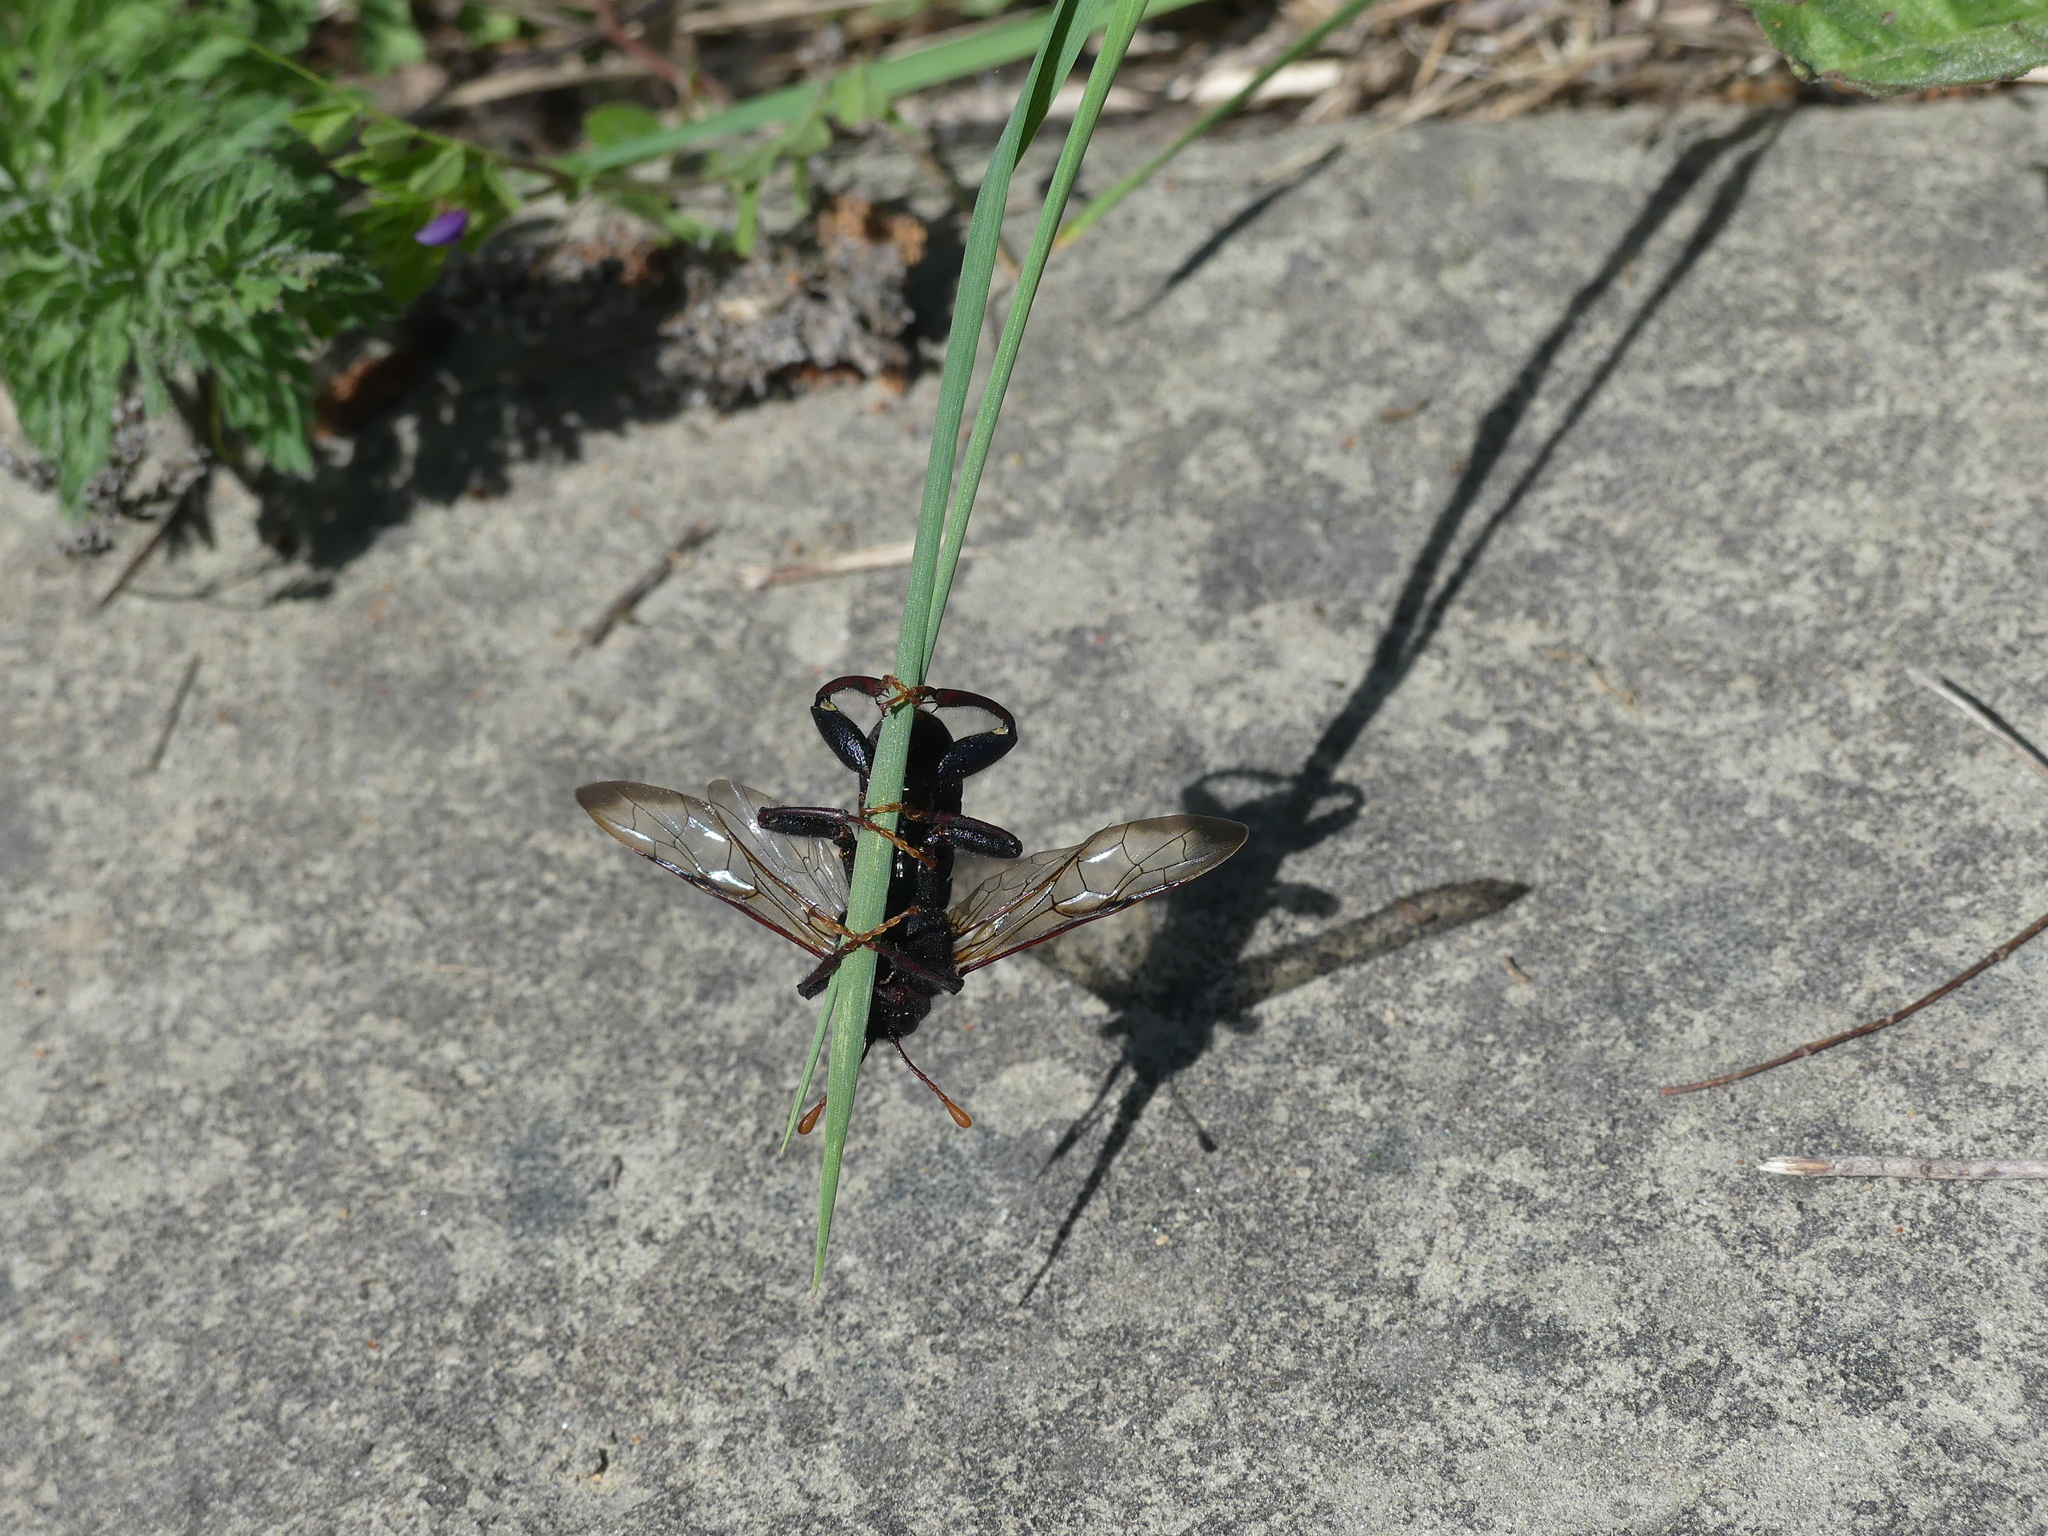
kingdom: Animalia
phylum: Arthropoda
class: Insecta
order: Hymenoptera
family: Cimbicidae
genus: Cimbex
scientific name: Cimbex femoratus
